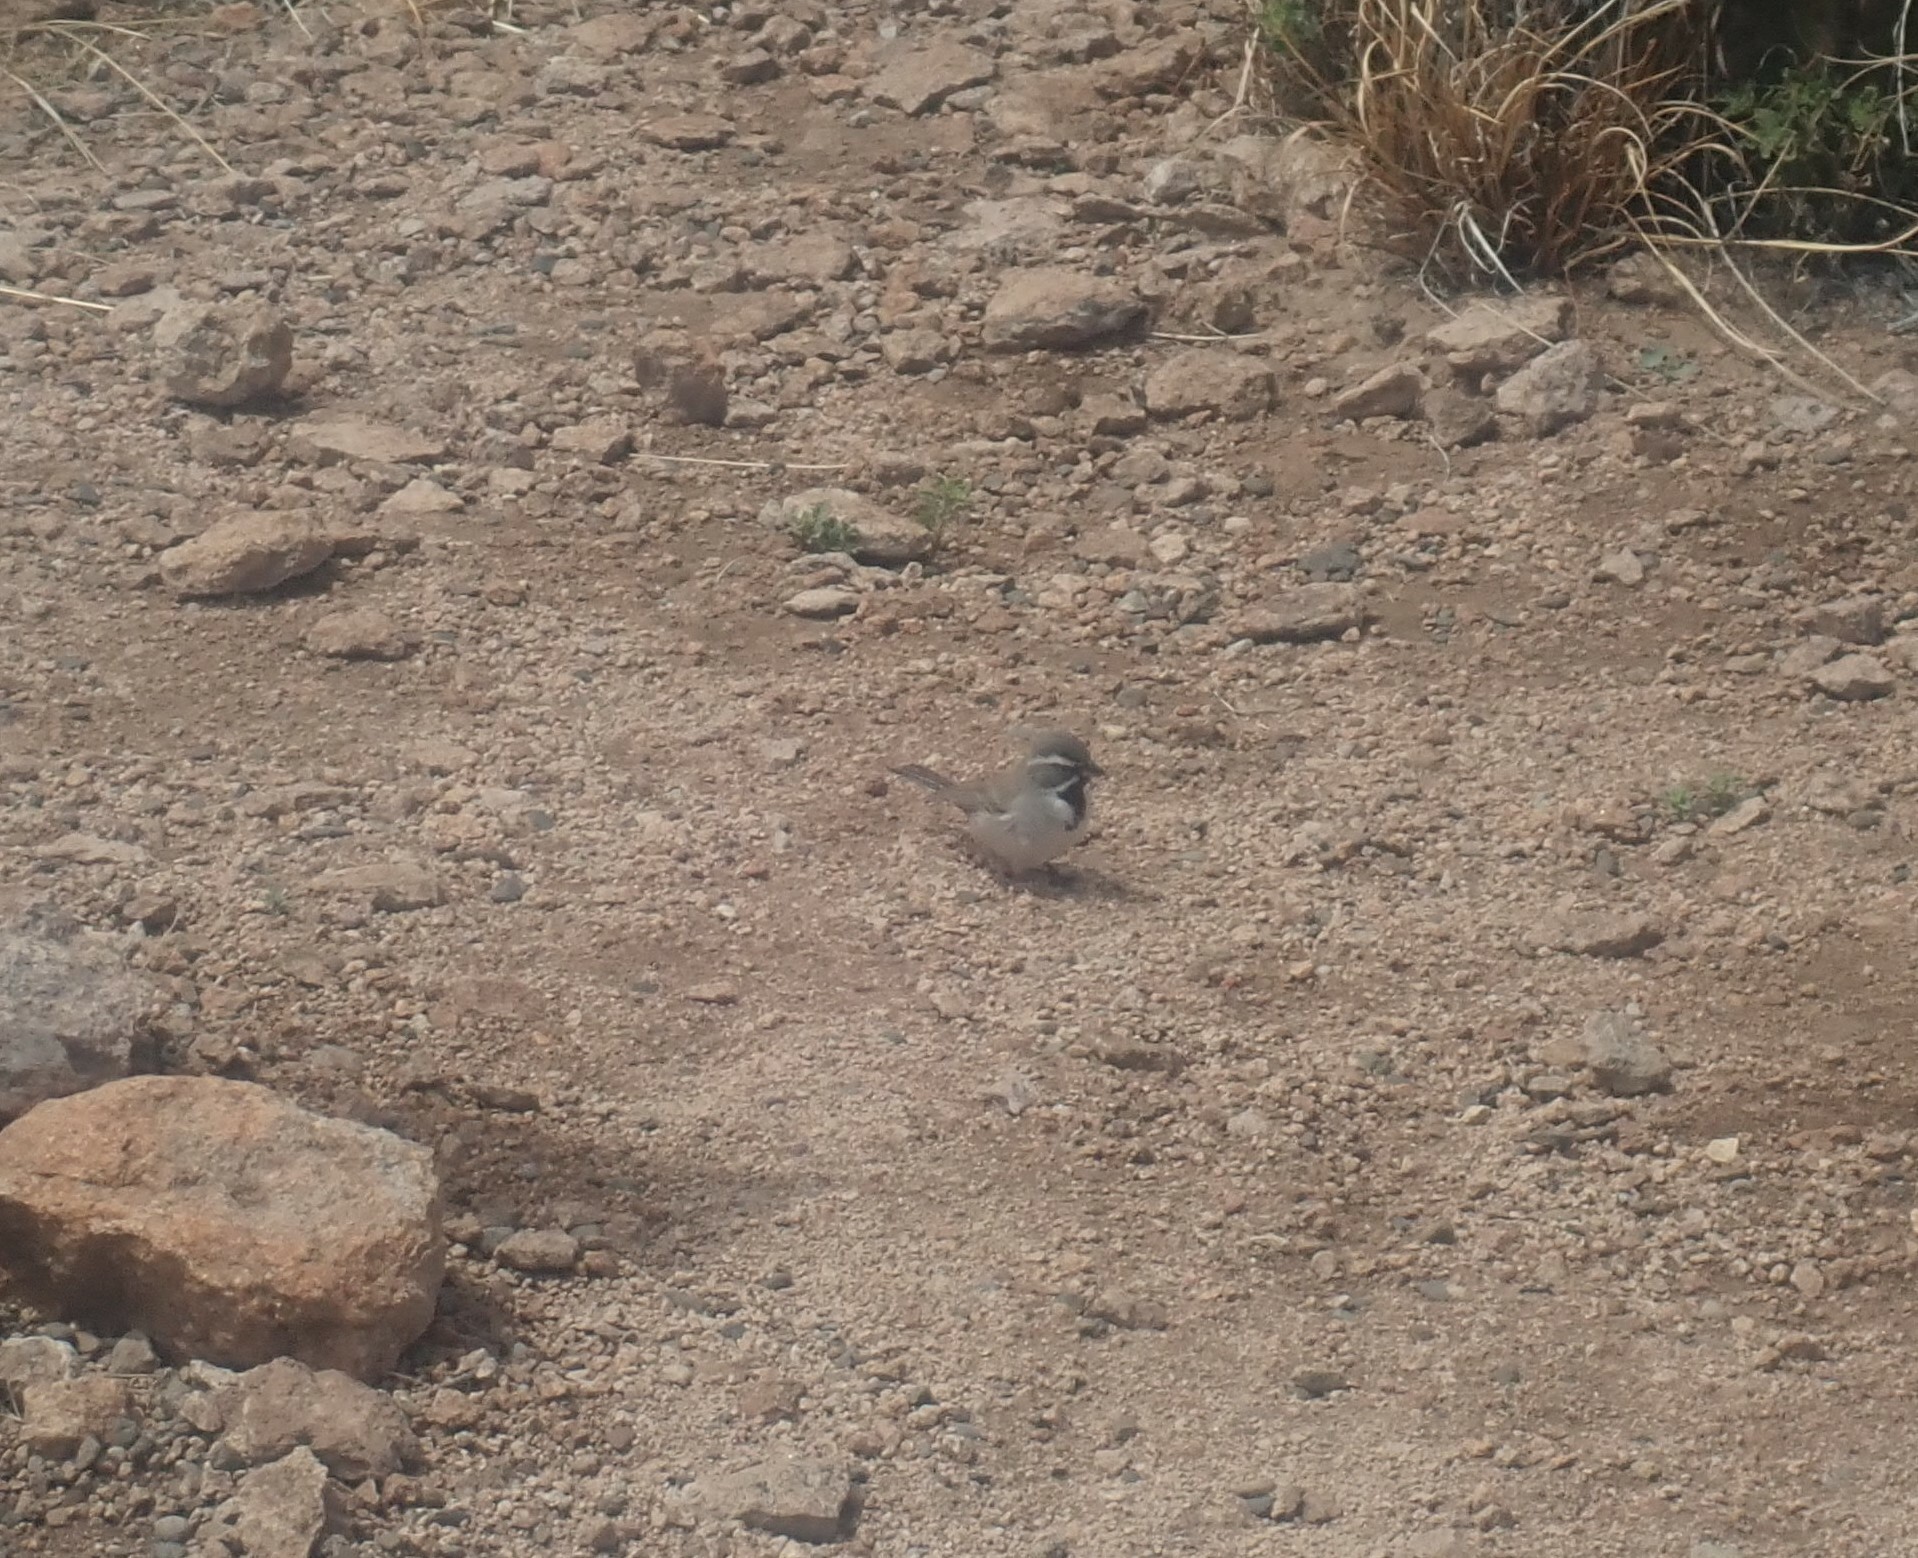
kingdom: Animalia
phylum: Chordata
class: Aves
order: Passeriformes
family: Passerellidae
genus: Amphispiza
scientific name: Amphispiza bilineata
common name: Black-throated sparrow
